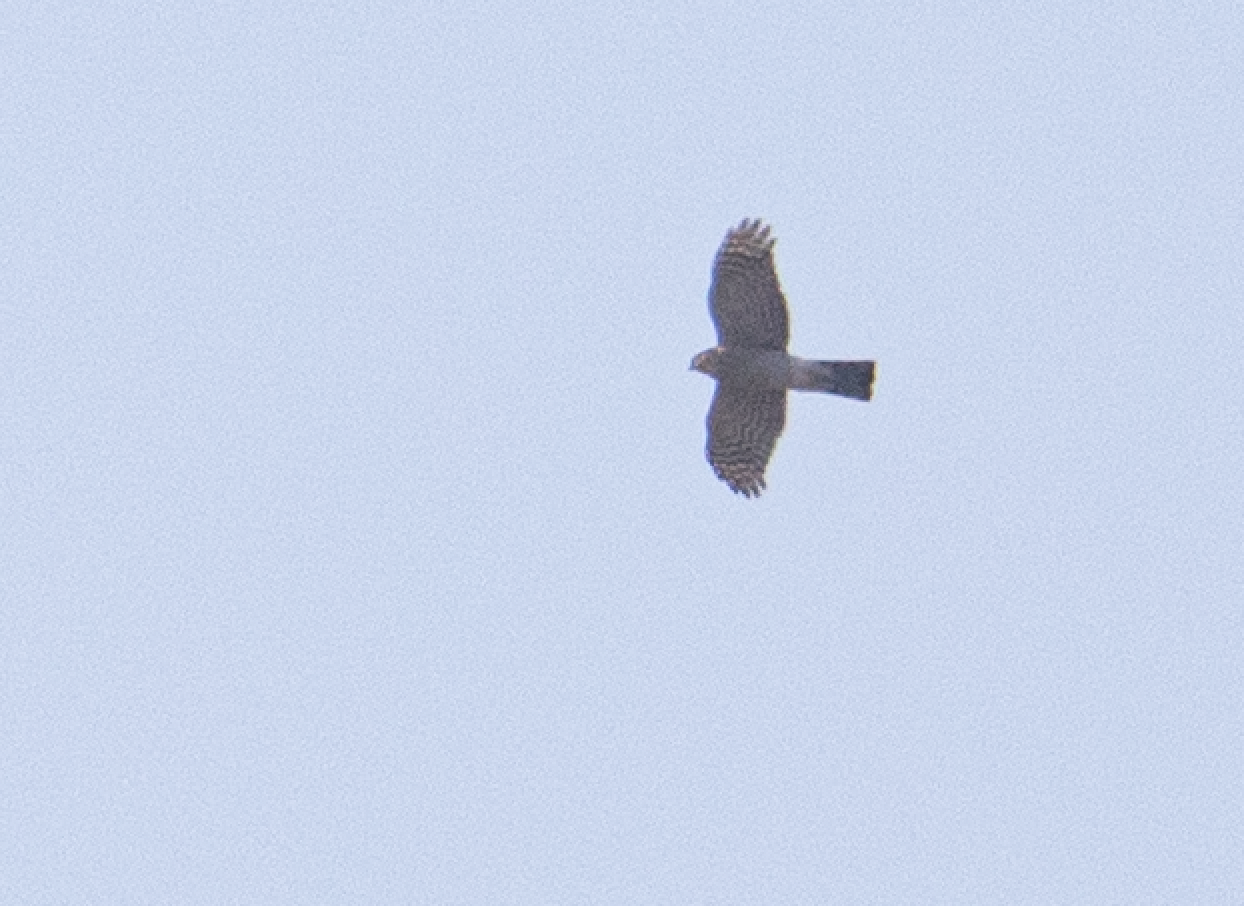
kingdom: Animalia
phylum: Chordata
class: Aves
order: Accipitriformes
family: Accipitridae
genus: Accipiter
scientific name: Accipiter nisus
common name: Eurasian sparrowhawk
